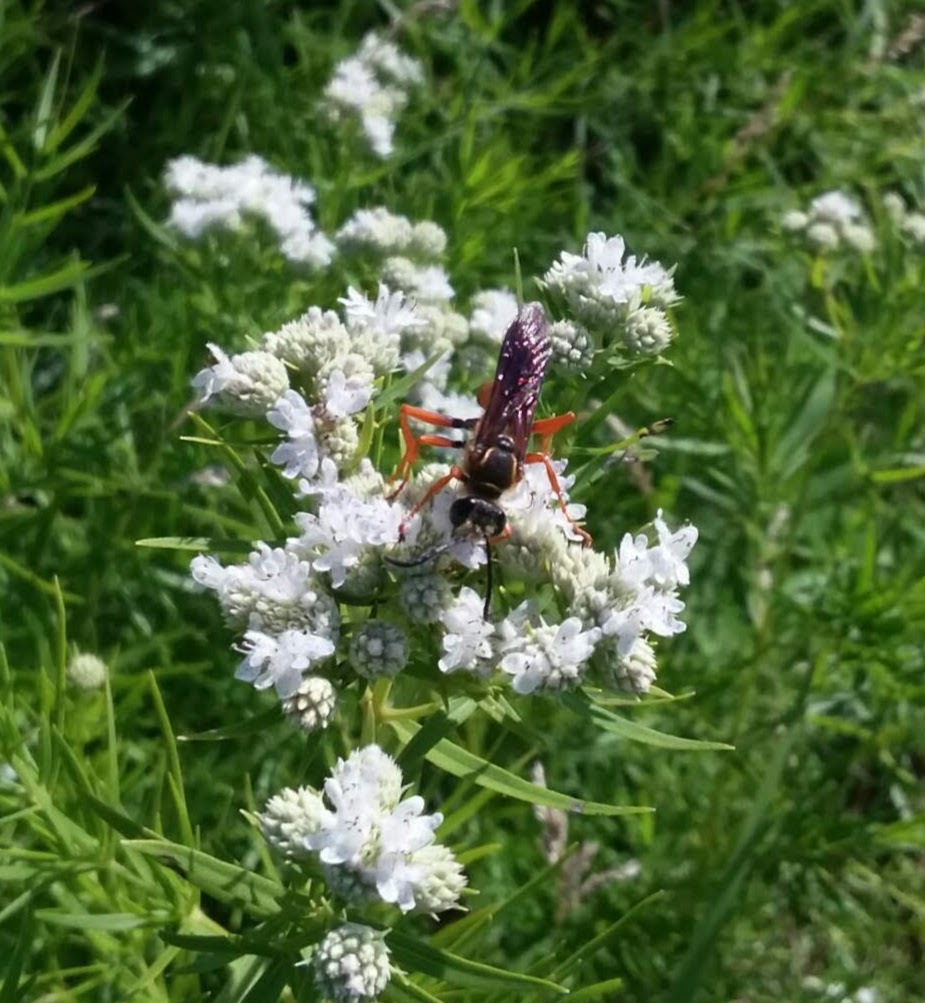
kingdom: Animalia
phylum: Arthropoda
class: Insecta
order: Hymenoptera
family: Sphecidae
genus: Sphex
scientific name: Sphex ichneumoneus
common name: Great golden digger wasp
